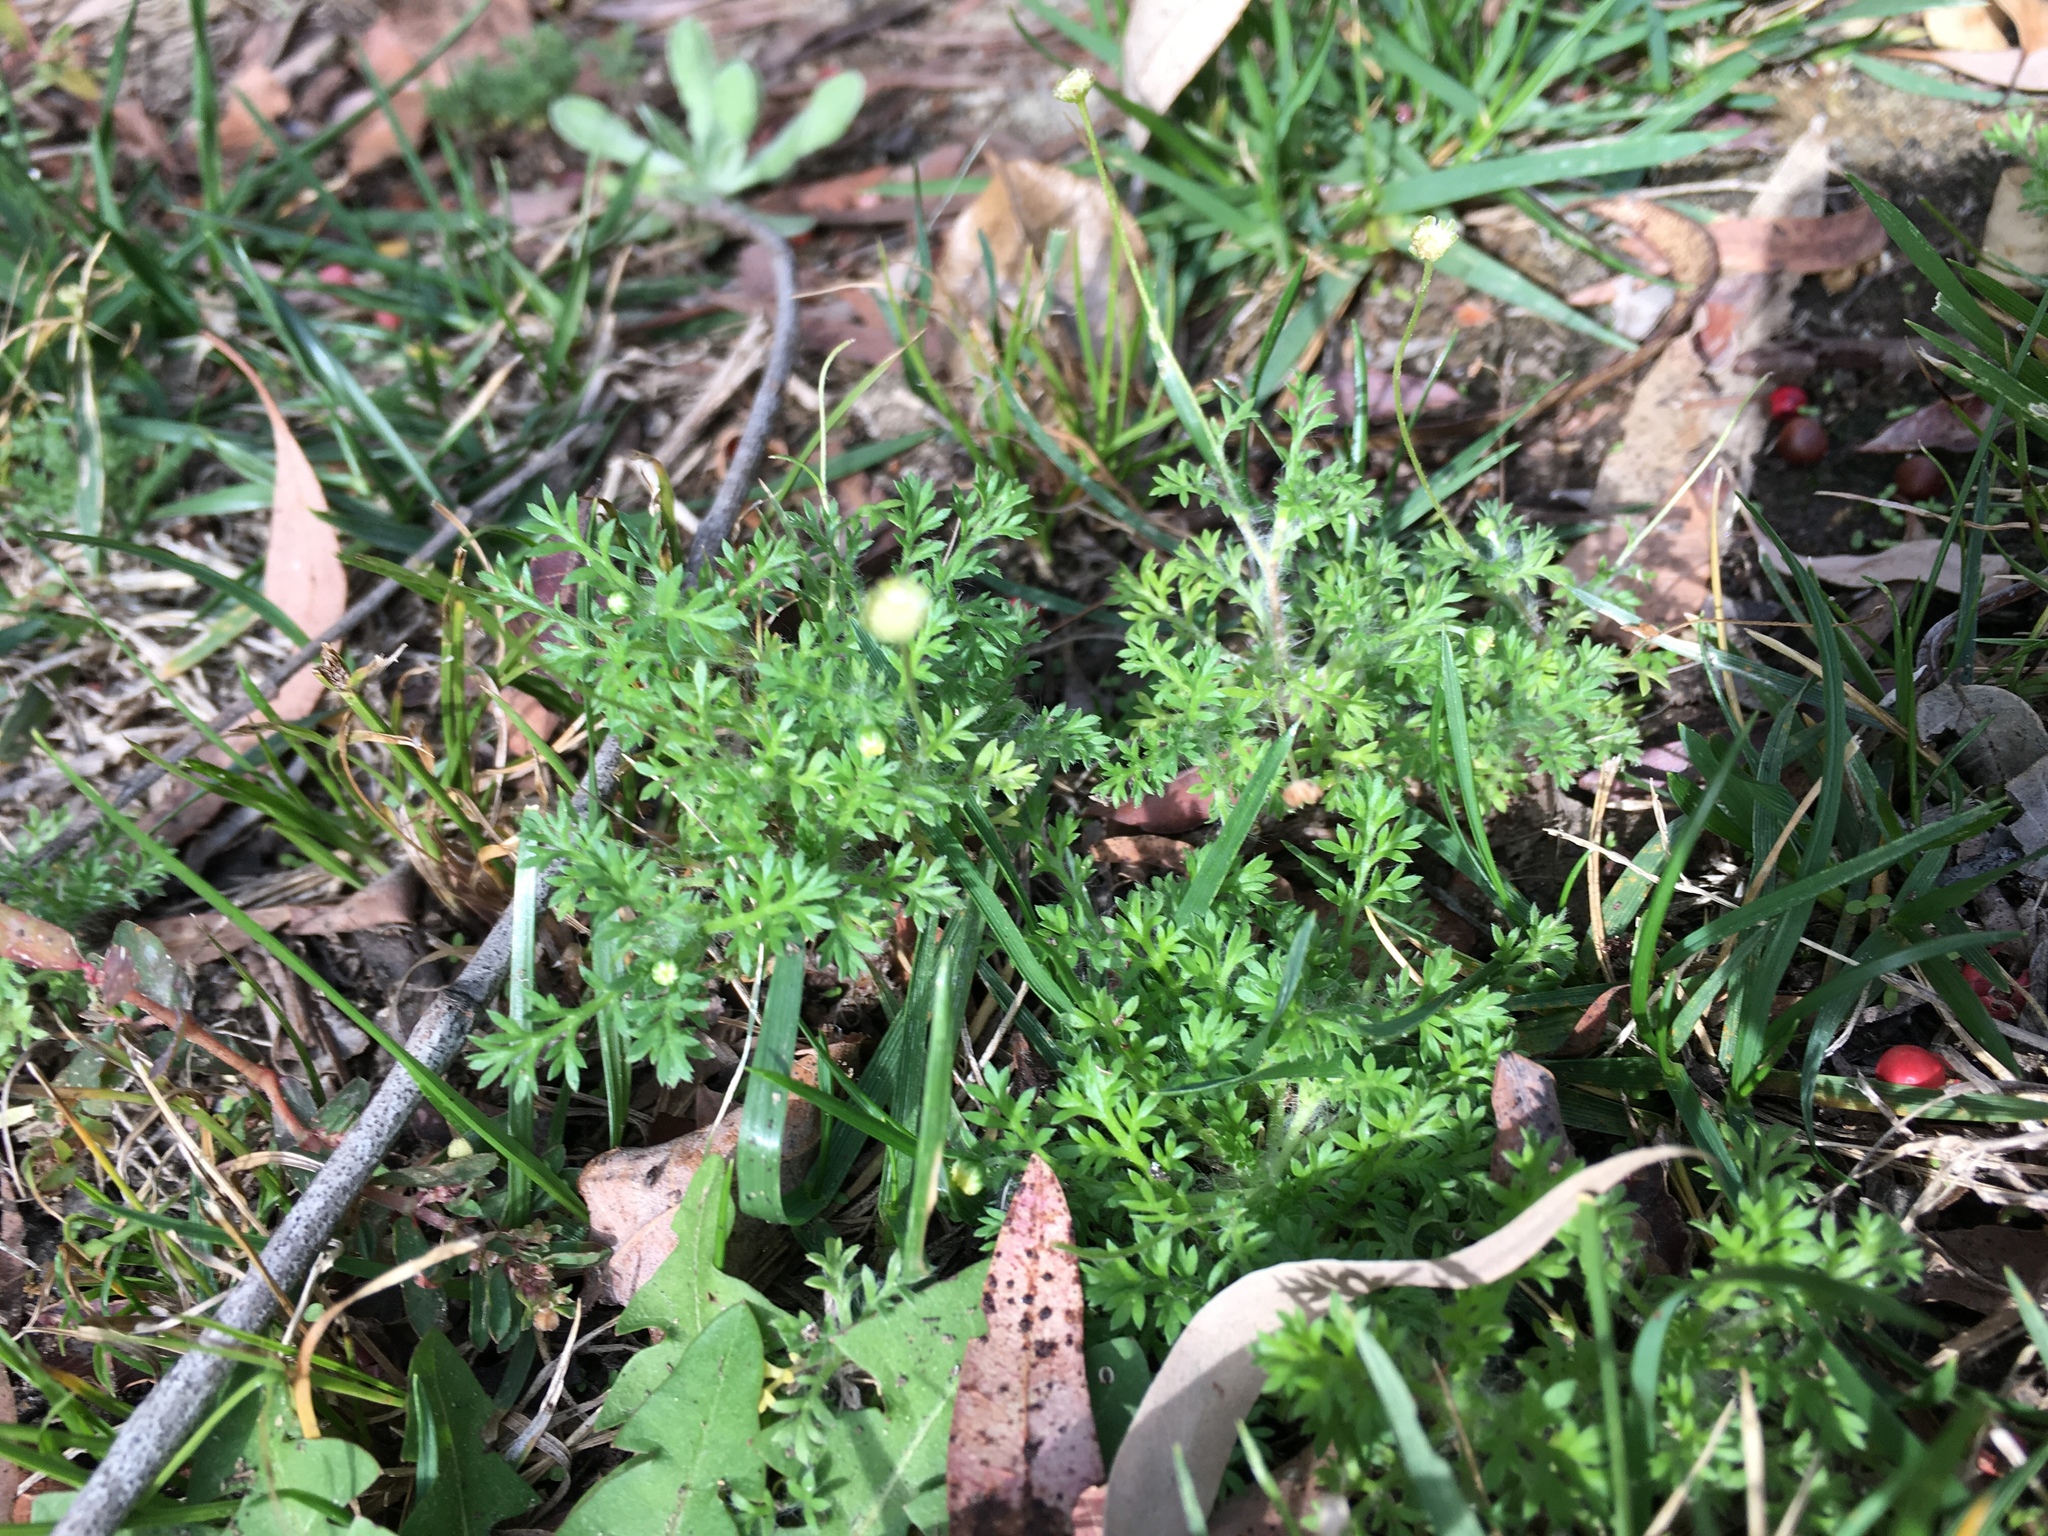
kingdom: Plantae
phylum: Tracheophyta
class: Magnoliopsida
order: Asterales
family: Asteraceae
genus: Cotula
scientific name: Cotula australis
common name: Australian waterbuttons
